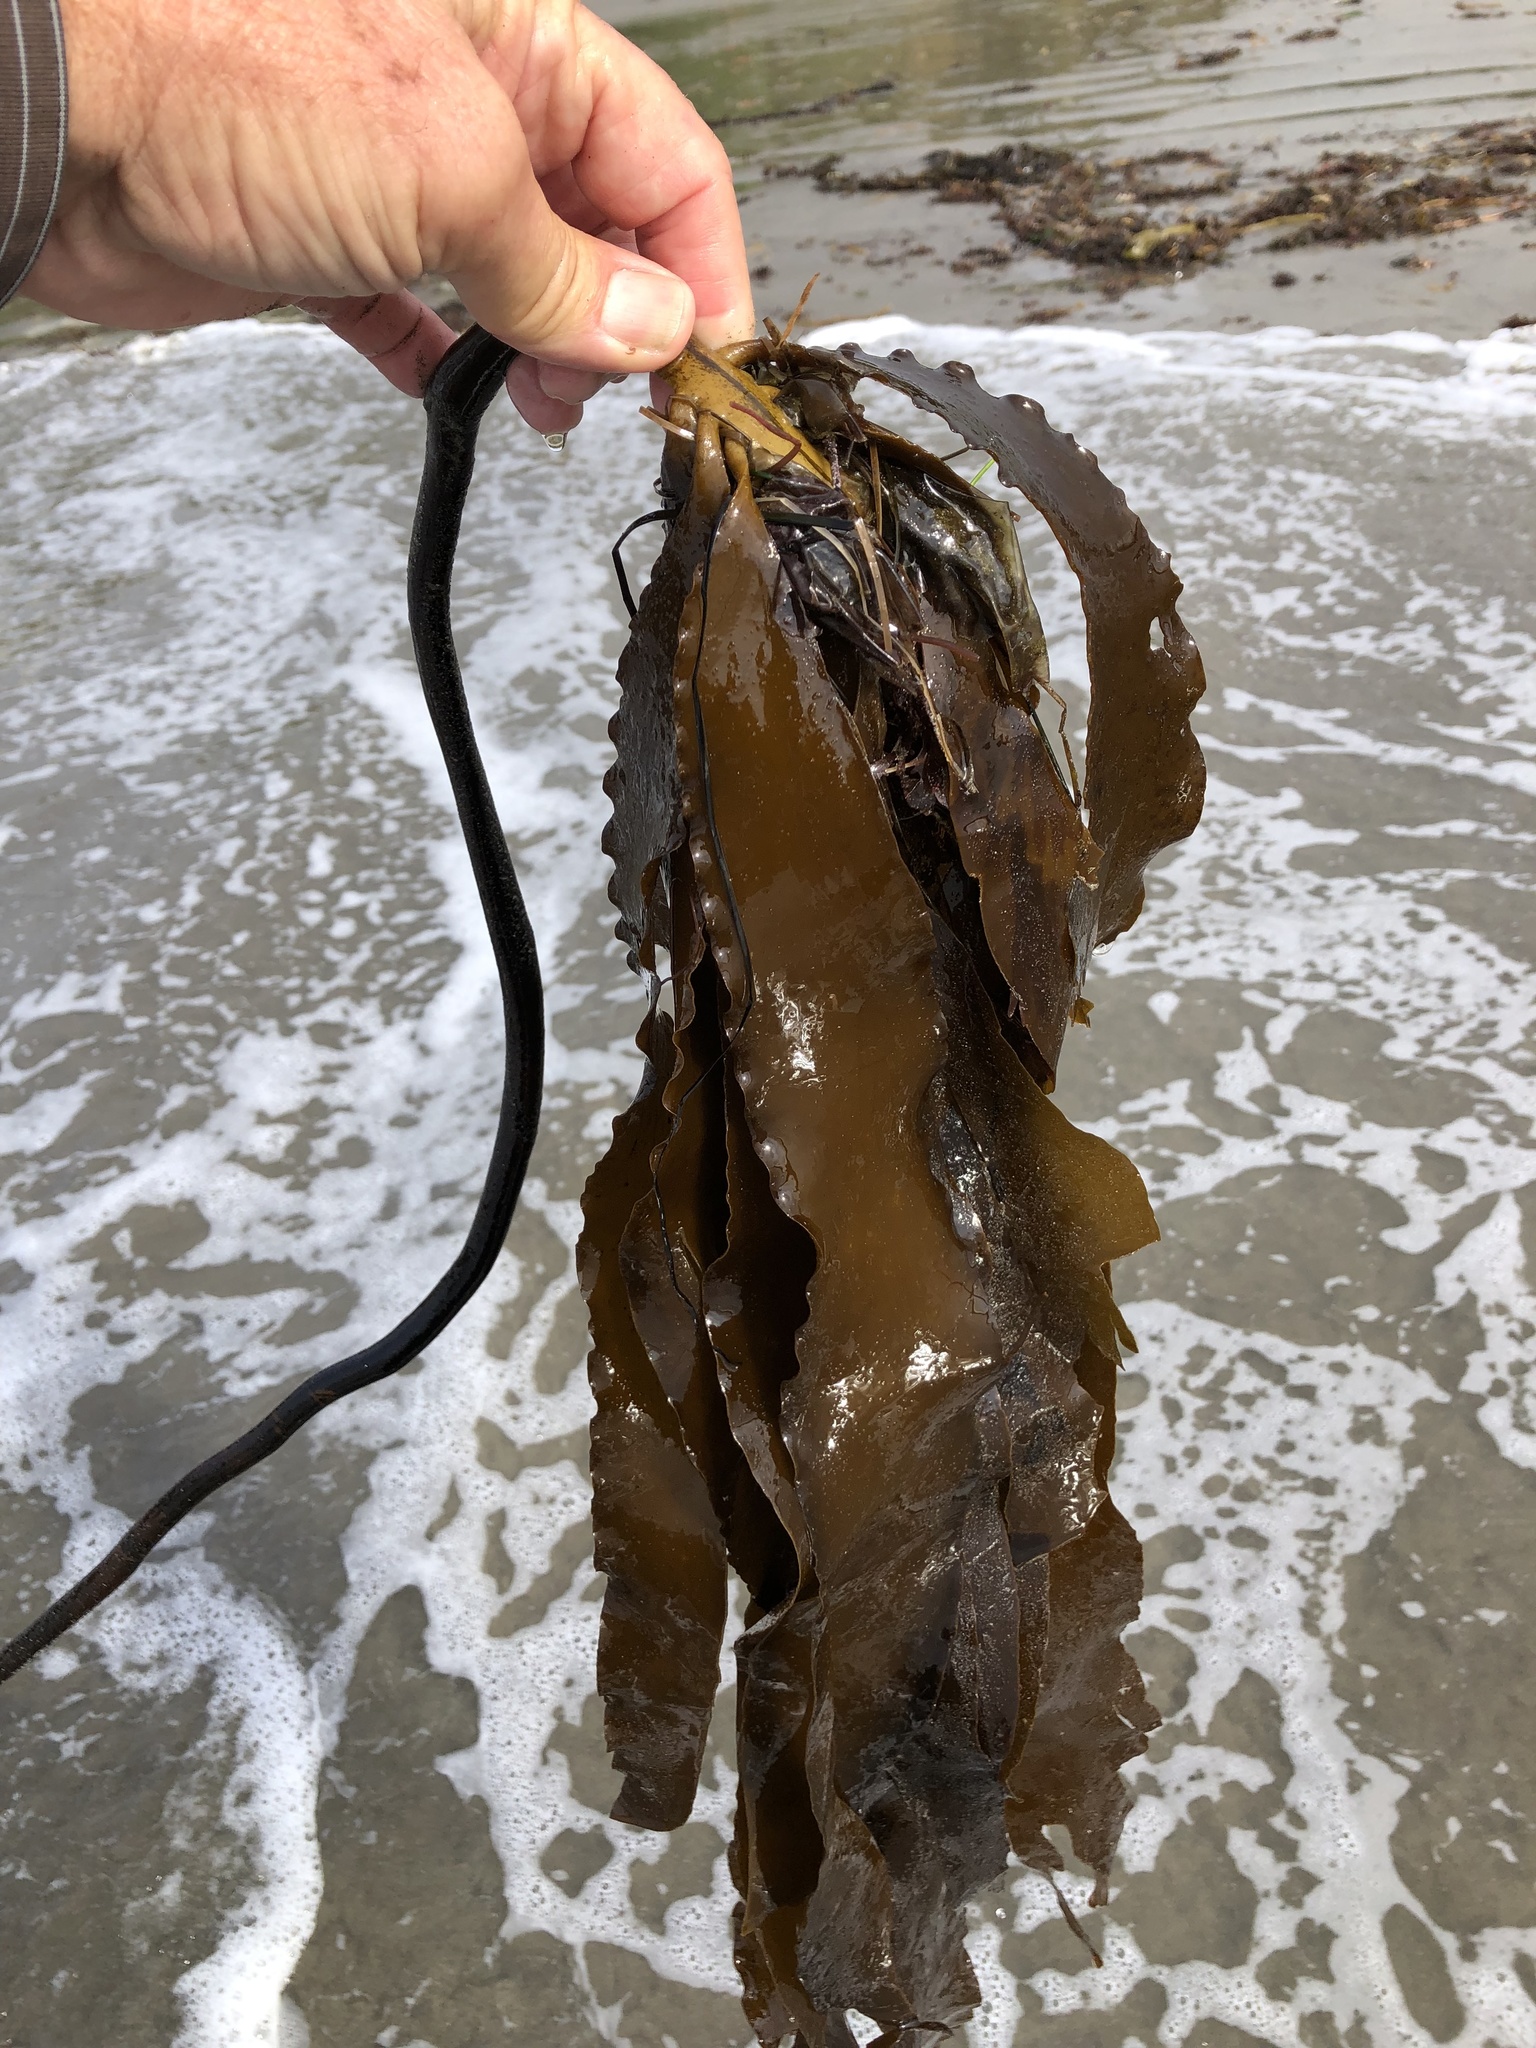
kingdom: Chromista
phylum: Ochrophyta
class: Phaeophyceae
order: Laminariales
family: Alariaceae
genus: Pterygophora
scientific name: Pterygophora californica
